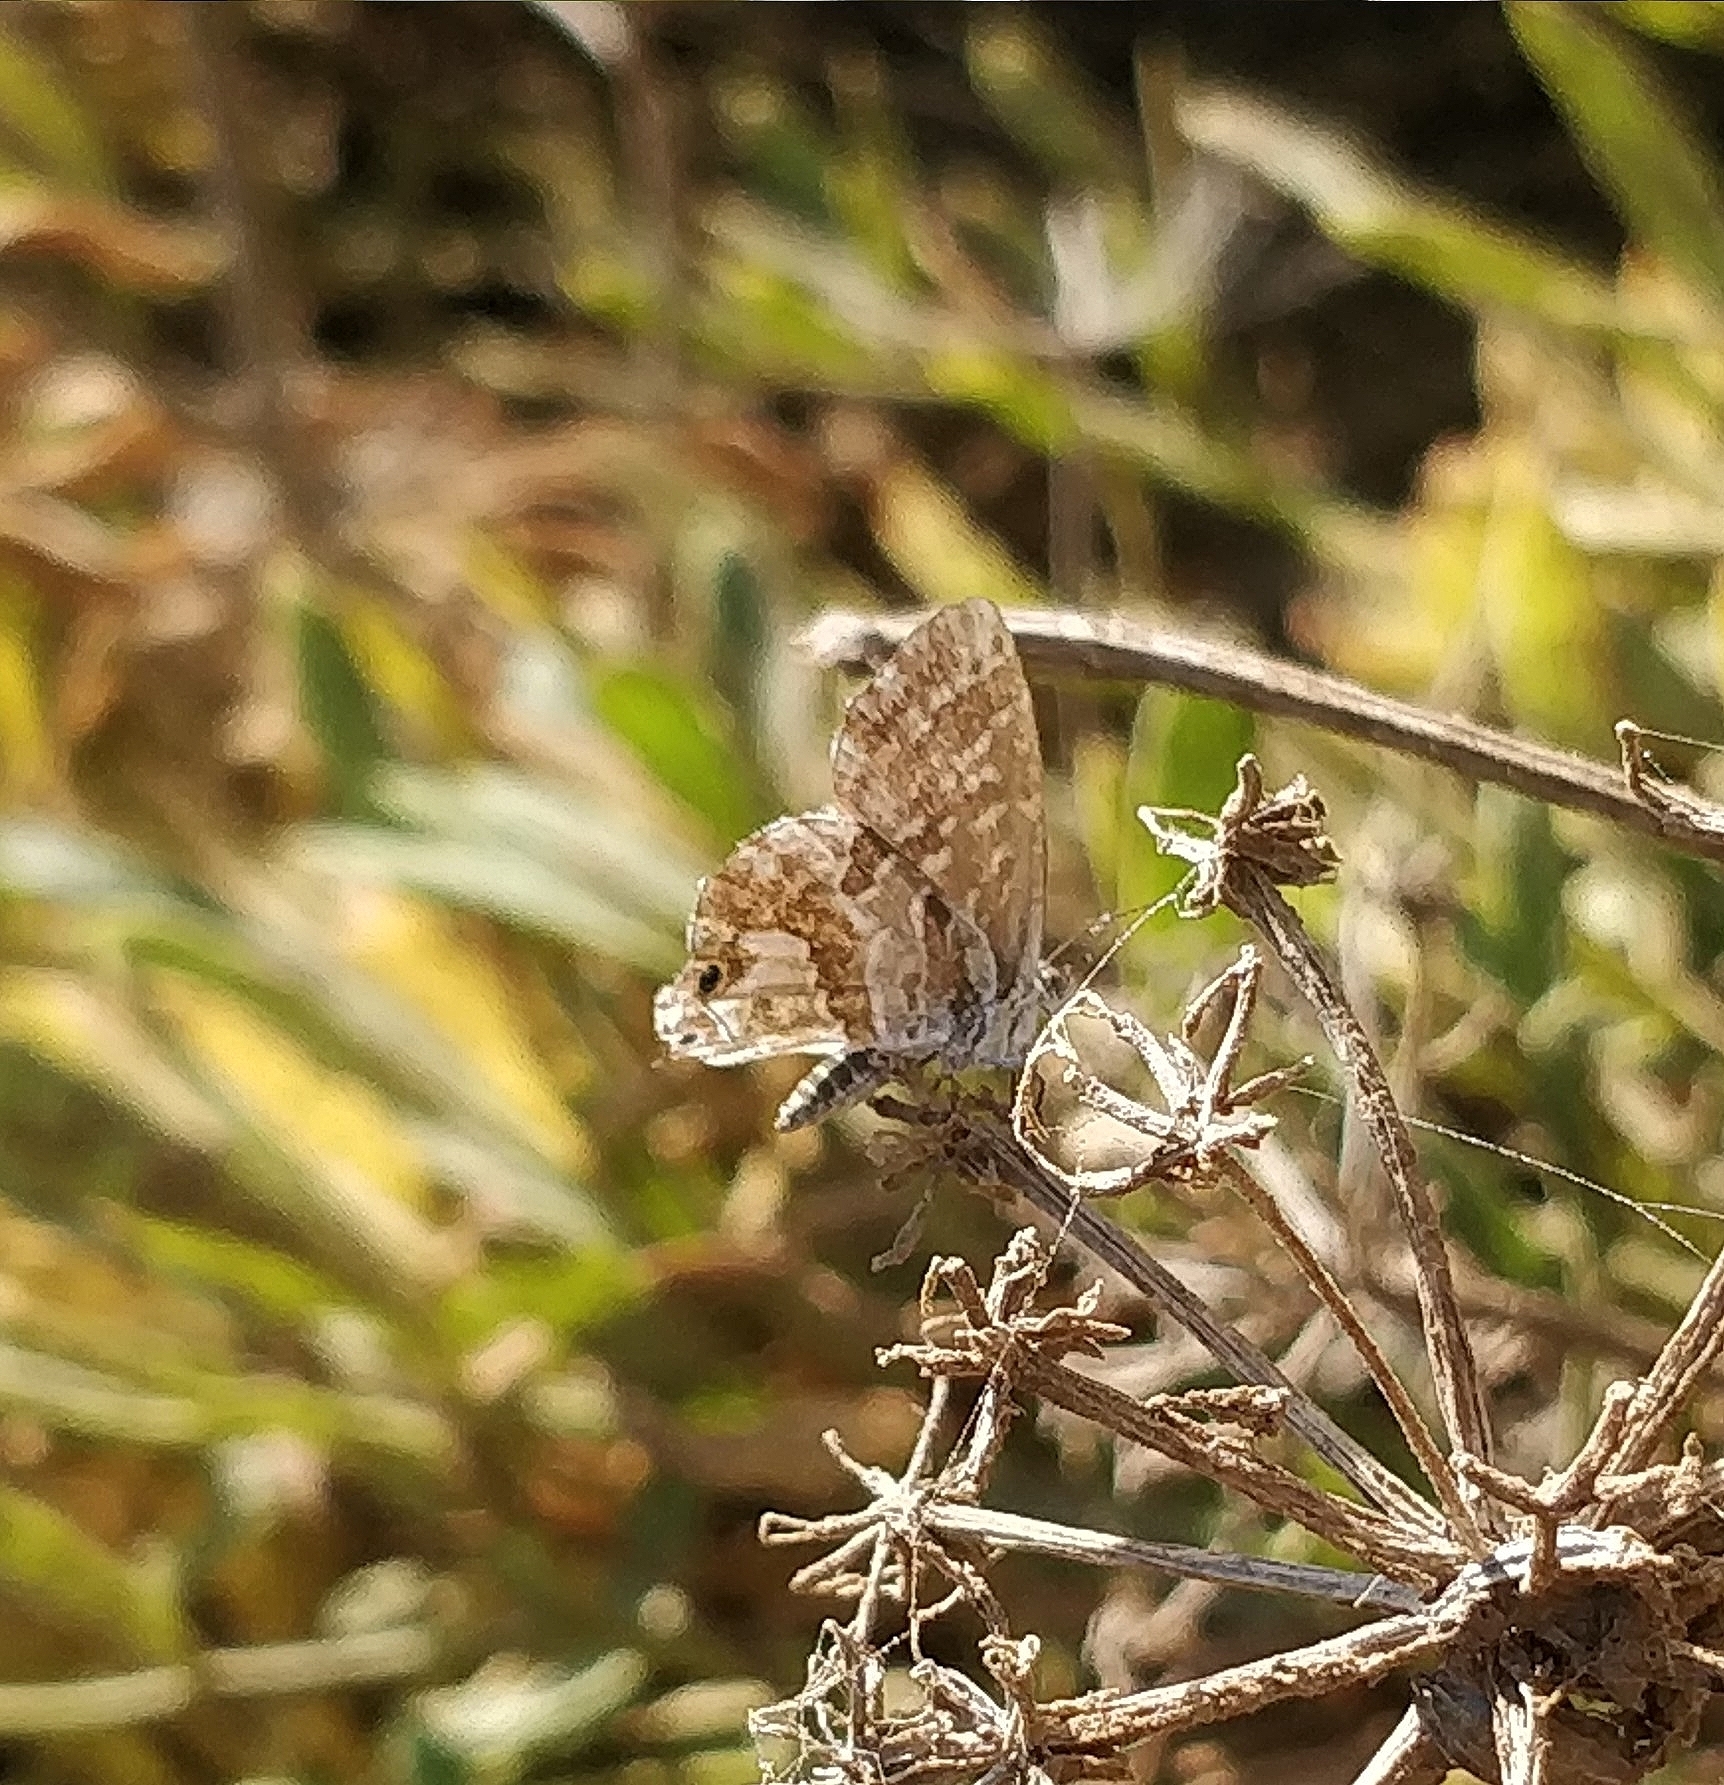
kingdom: Animalia
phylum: Arthropoda
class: Insecta
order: Lepidoptera
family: Lycaenidae
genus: Cacyreus
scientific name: Cacyreus marshalli
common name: Geranium bronze
